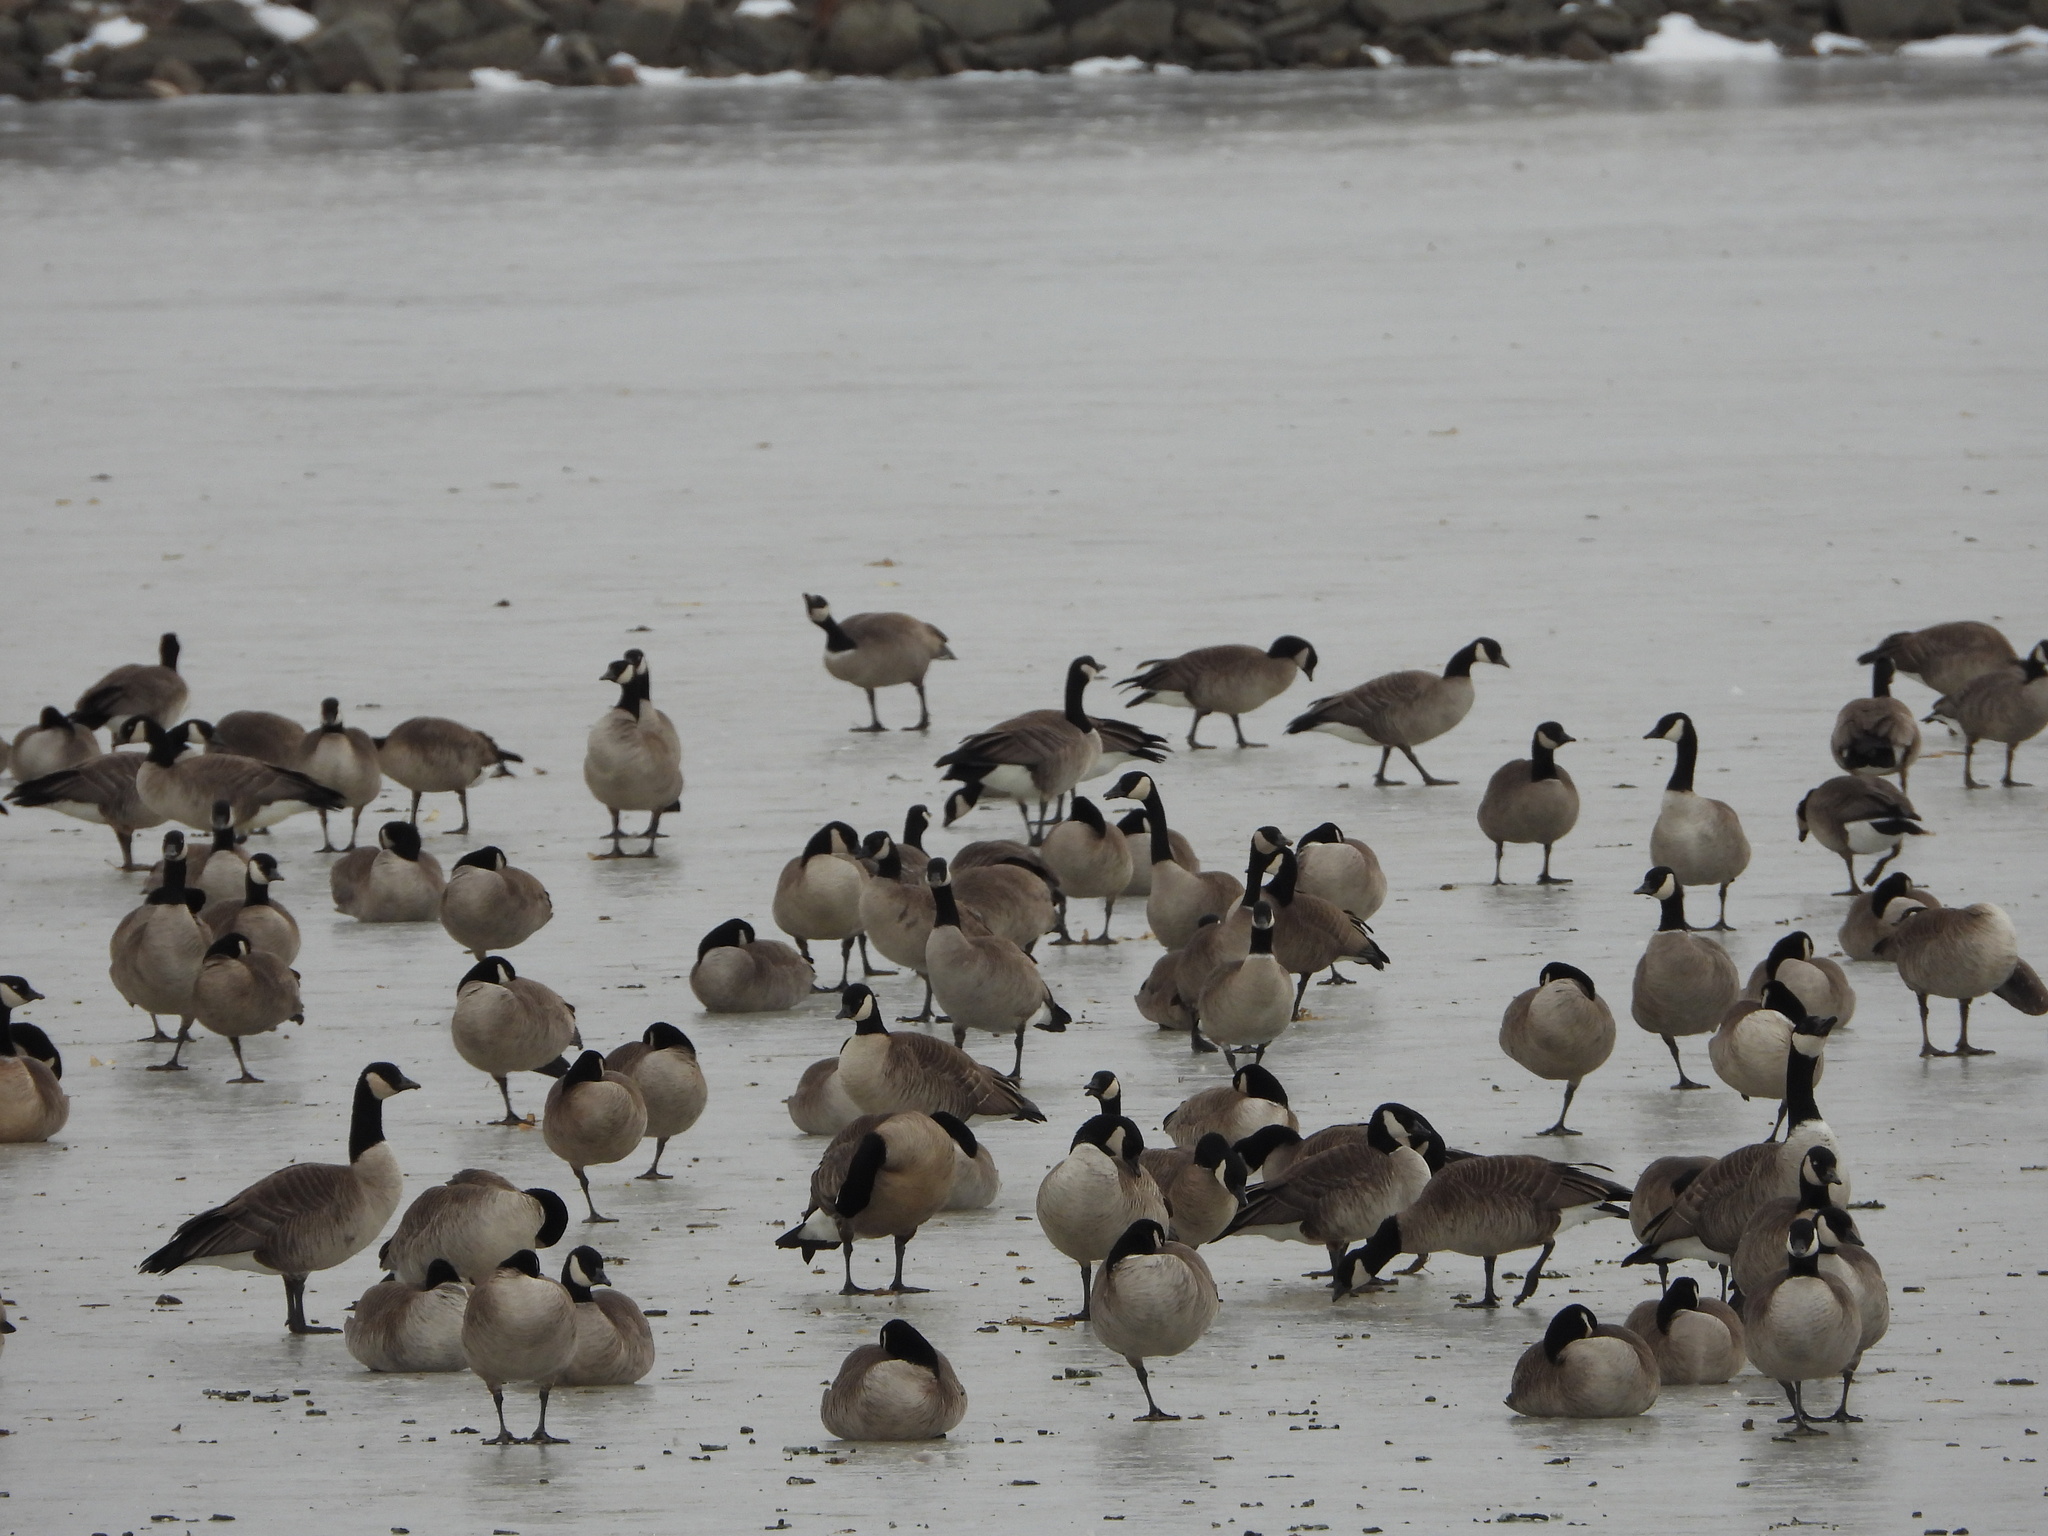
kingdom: Animalia
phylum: Chordata
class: Aves
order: Anseriformes
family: Anatidae
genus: Branta
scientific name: Branta hutchinsii
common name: Cackling goose
